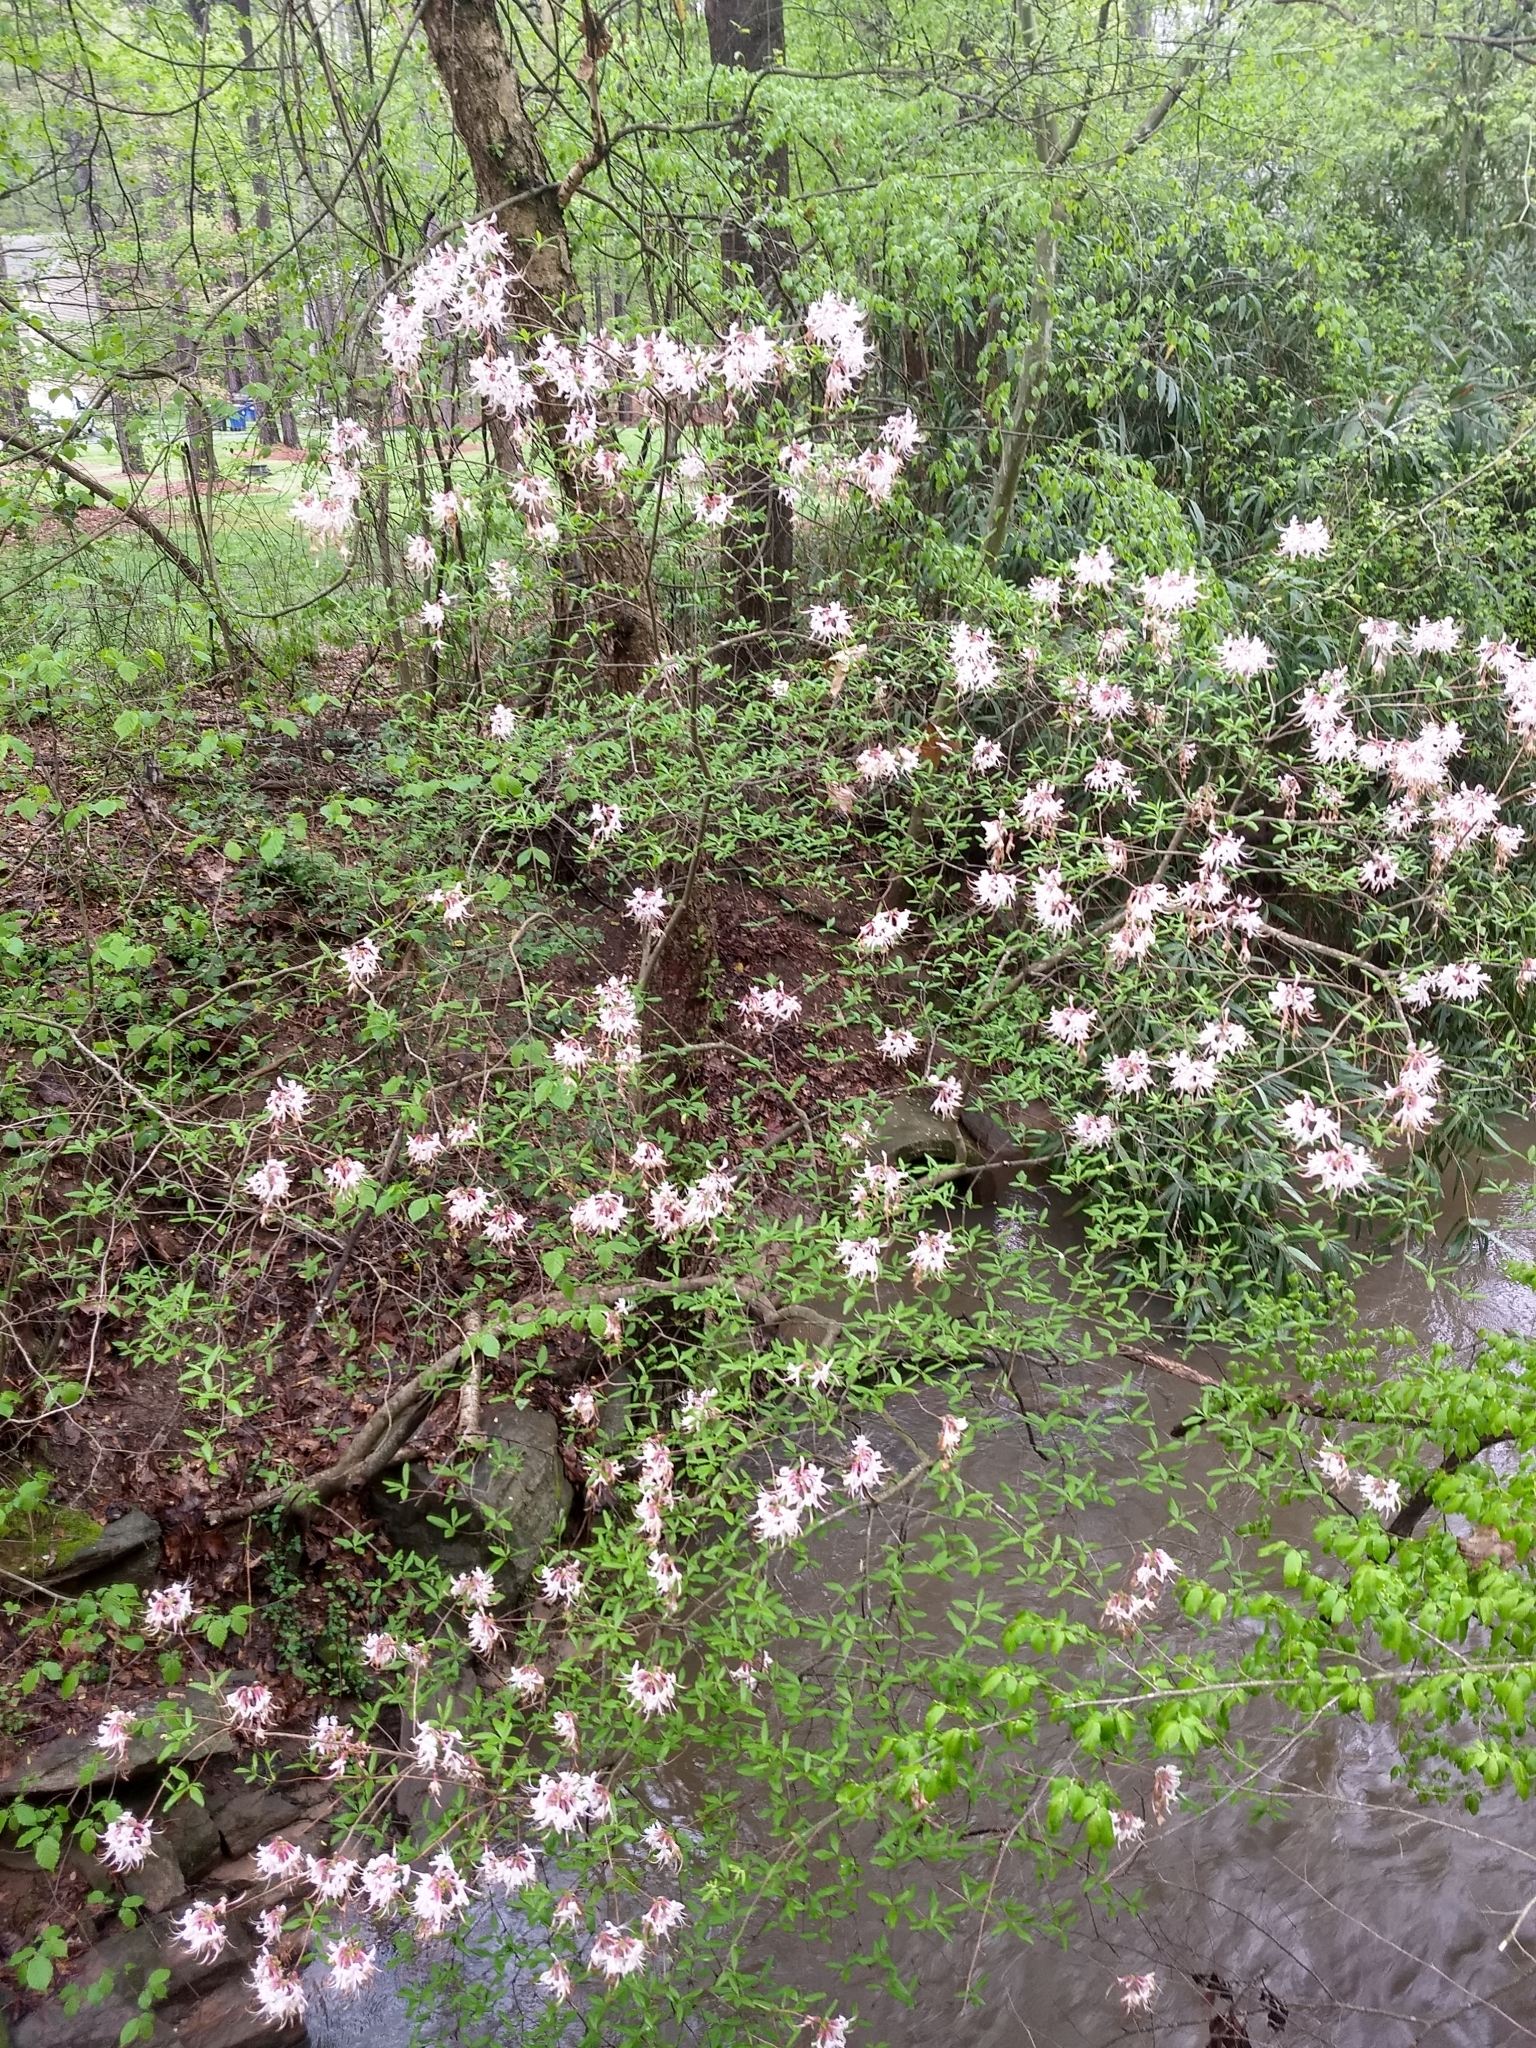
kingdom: Plantae
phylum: Tracheophyta
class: Magnoliopsida
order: Ericales
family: Ericaceae
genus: Rhododendron
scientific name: Rhododendron periclymenoides
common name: Election-pink
